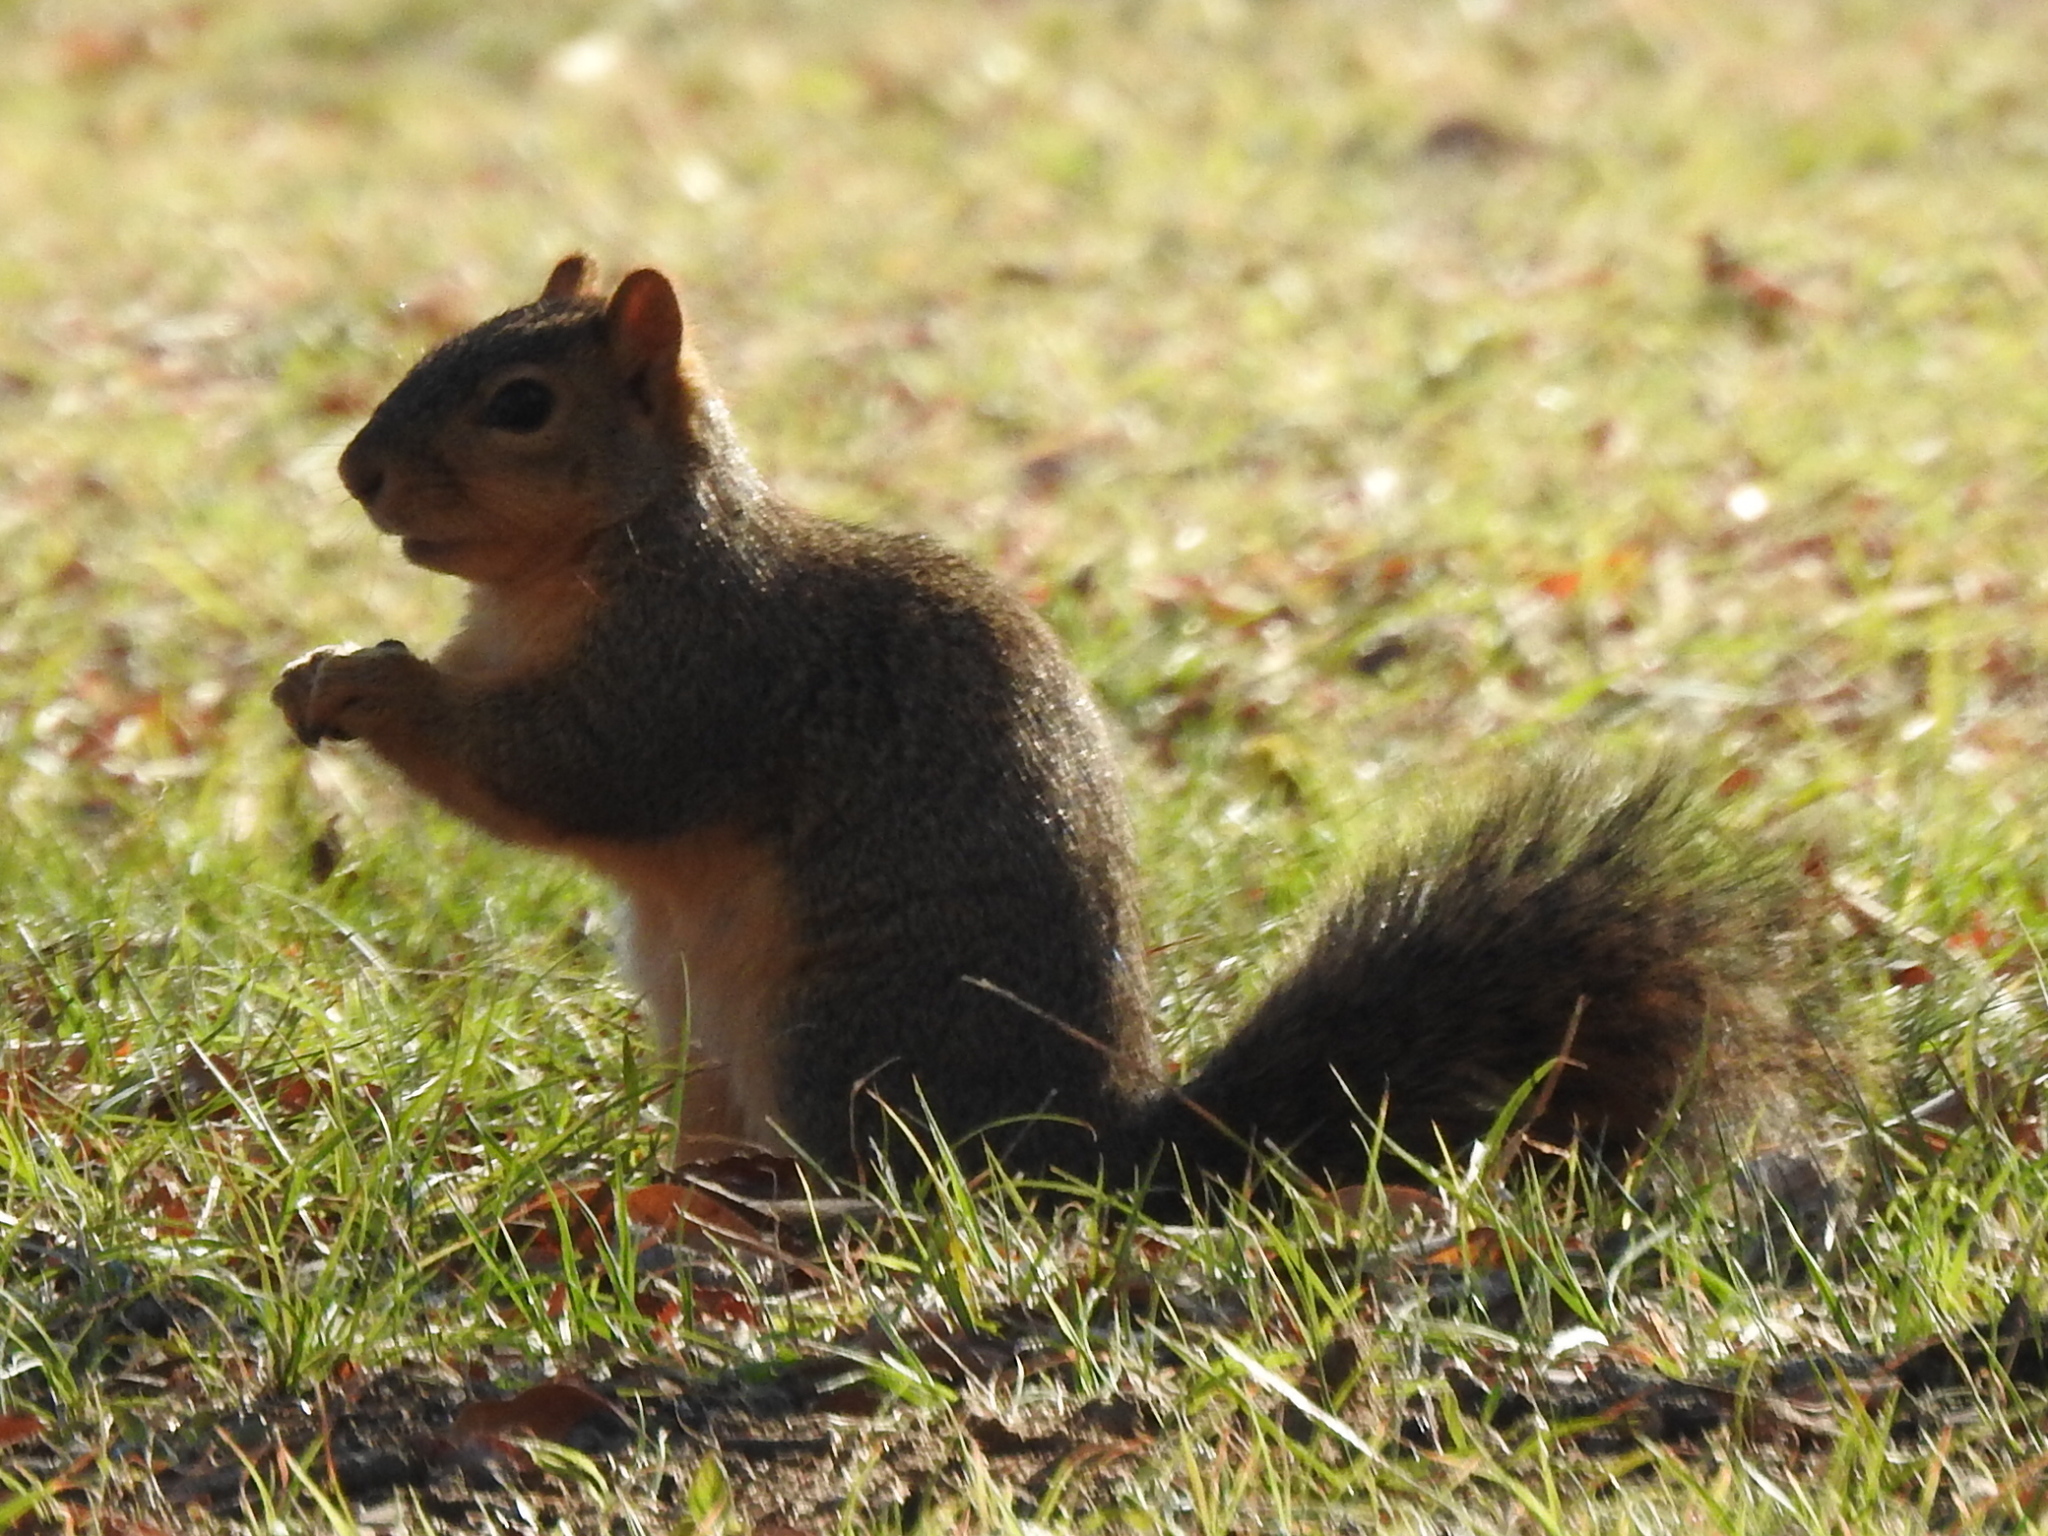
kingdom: Animalia
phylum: Chordata
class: Mammalia
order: Rodentia
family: Sciuridae
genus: Sciurus
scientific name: Sciurus niger
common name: Fox squirrel
